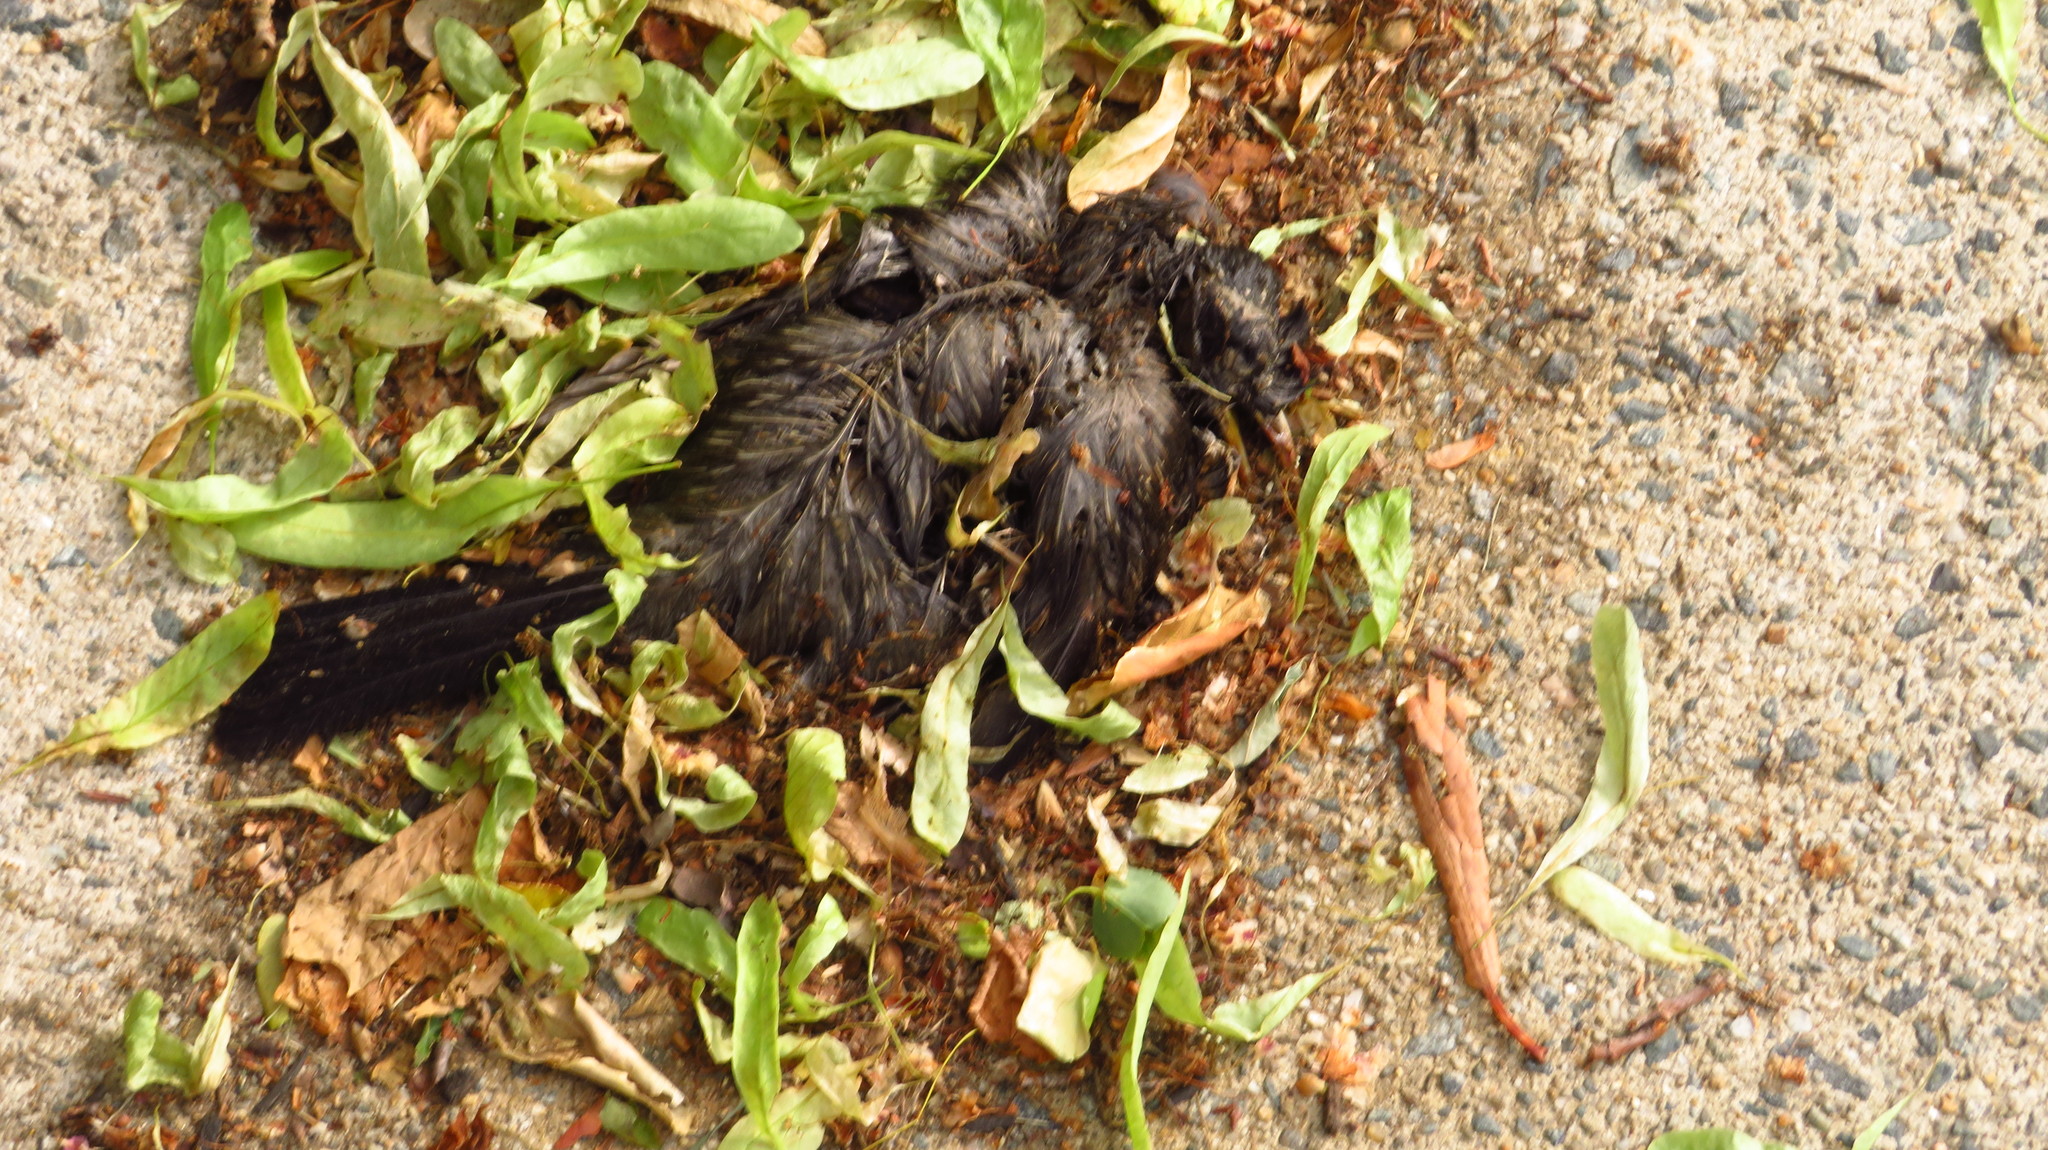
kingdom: Animalia
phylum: Chordata
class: Aves
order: Passeriformes
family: Turdidae
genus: Turdus
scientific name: Turdus migratorius
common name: American robin
